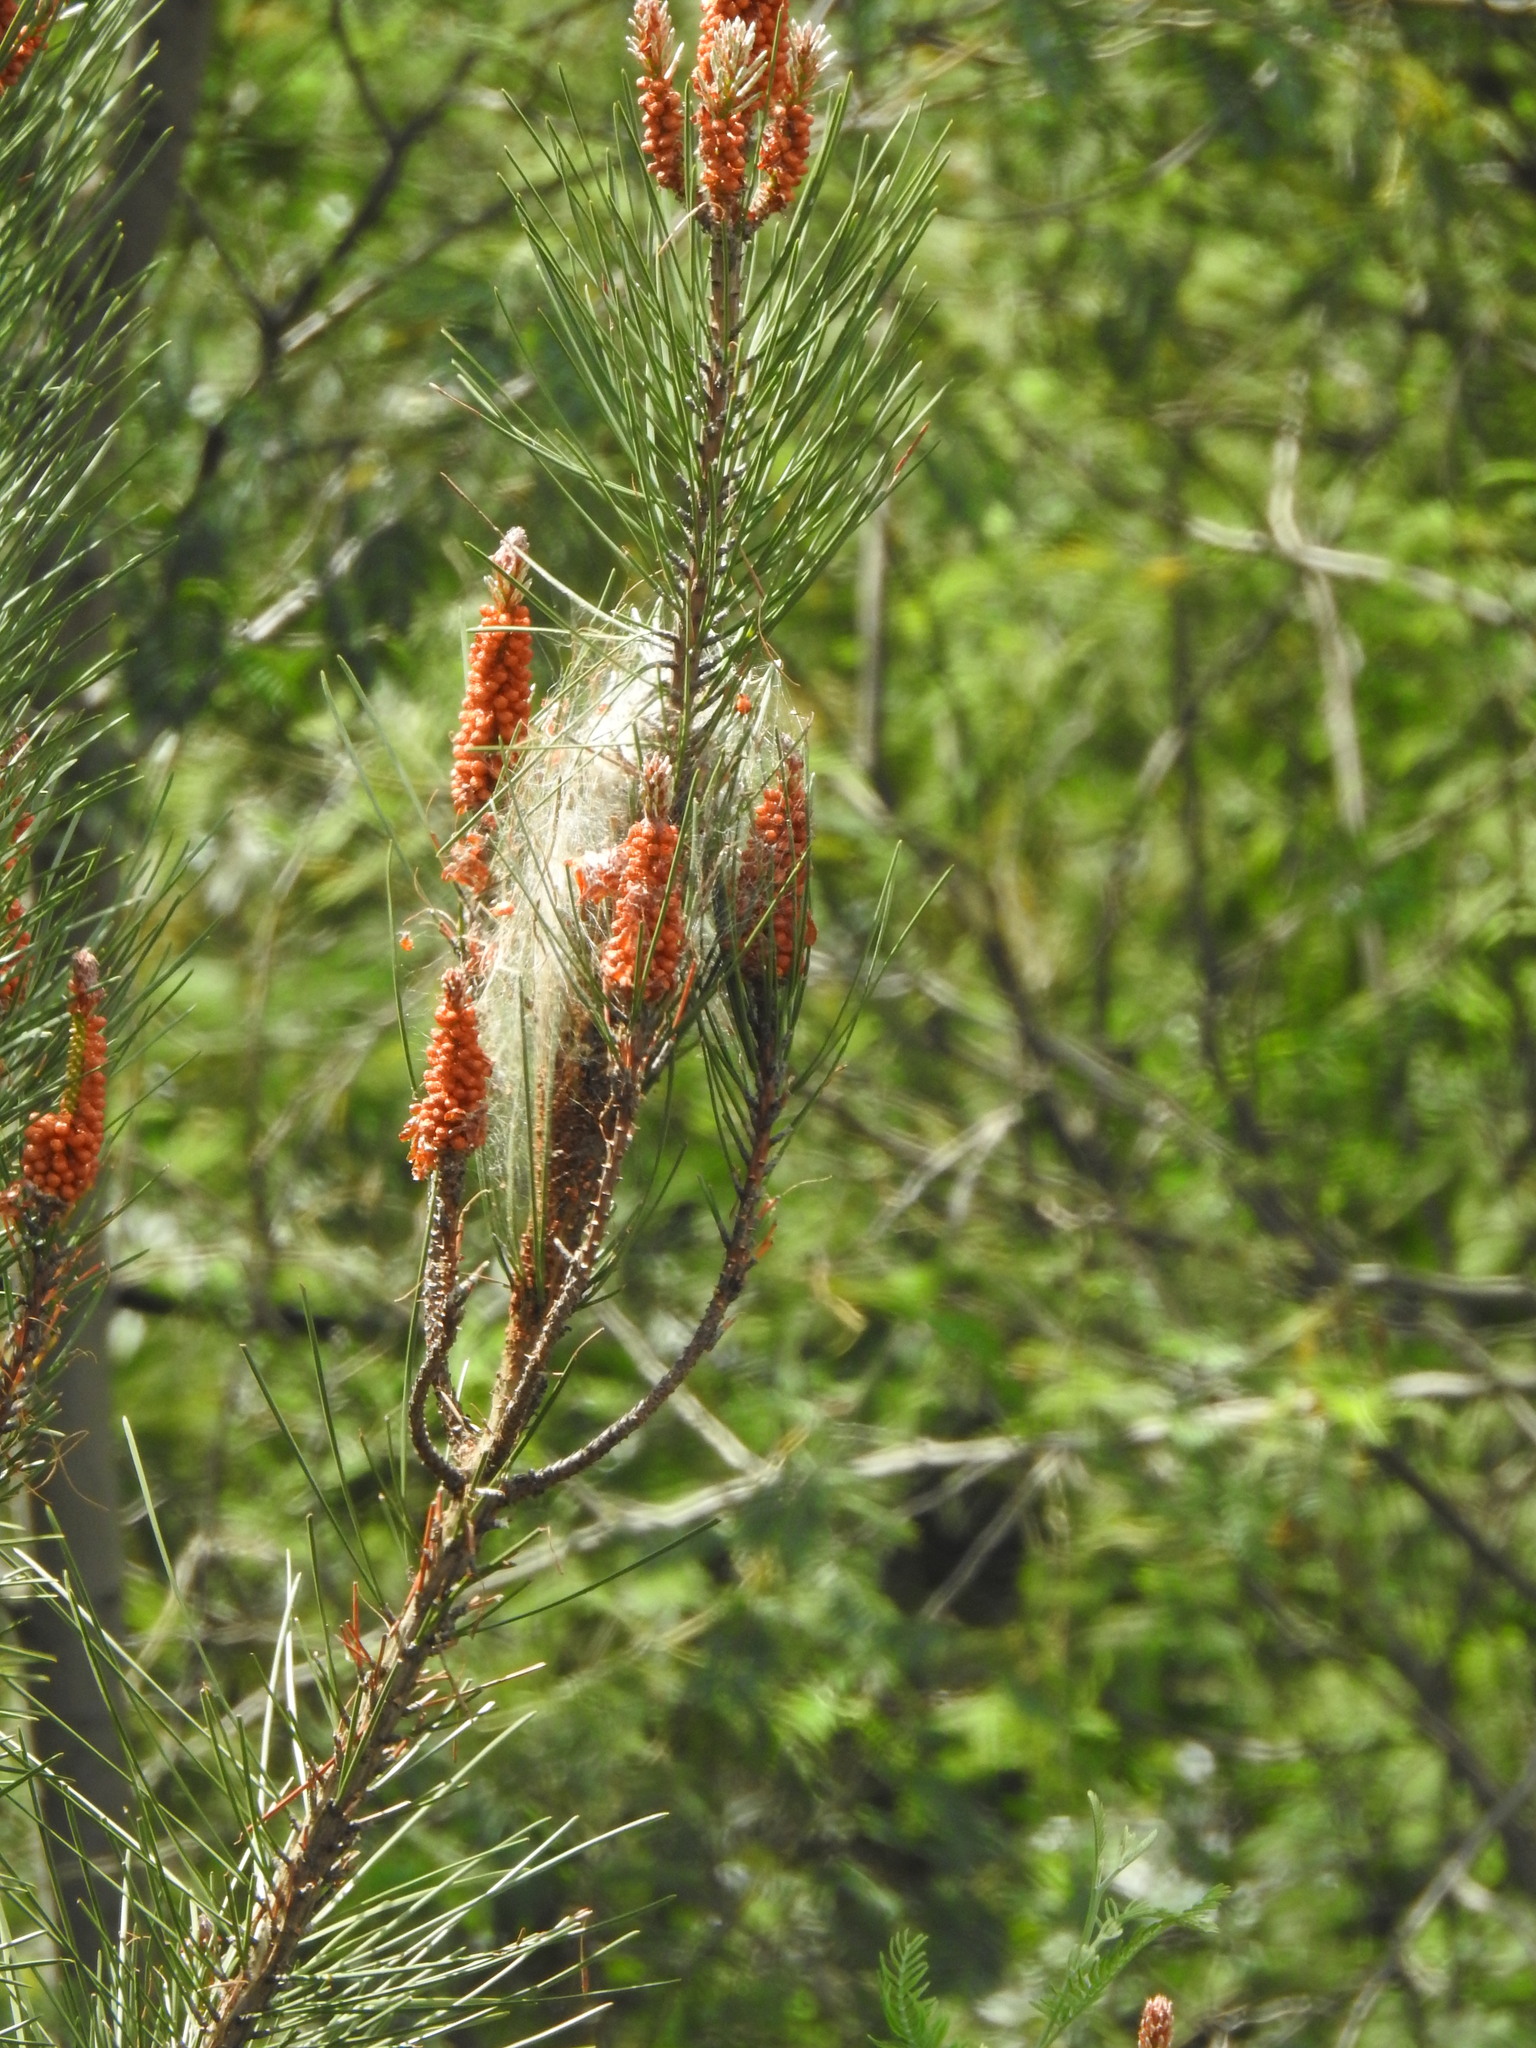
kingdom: Animalia
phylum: Arthropoda
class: Insecta
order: Lepidoptera
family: Notodontidae
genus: Thaumetopoea
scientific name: Thaumetopoea pityocampa
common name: Pine processionary
